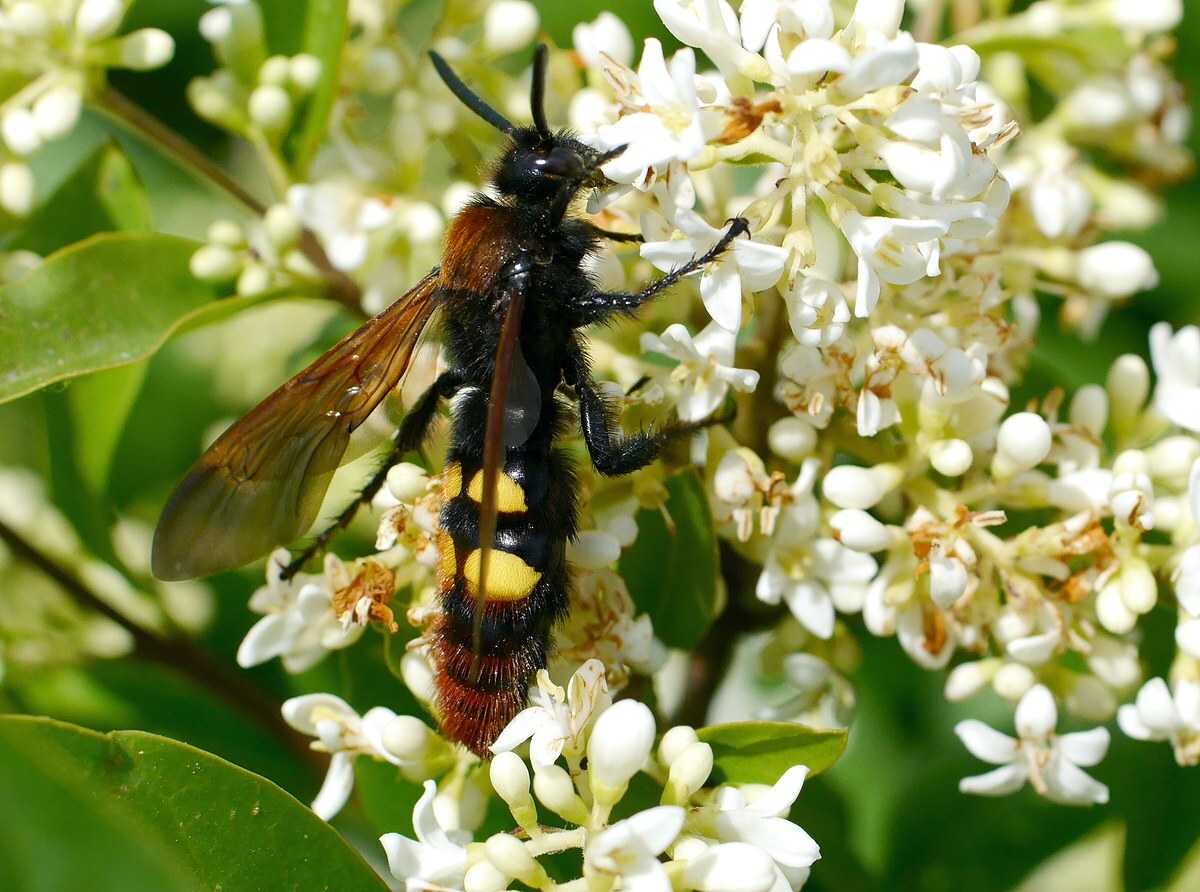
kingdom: Animalia
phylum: Arthropoda
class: Insecta
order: Hymenoptera
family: Scoliidae
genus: Megascolia
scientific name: Megascolia maculata
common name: Mammoth wasp
